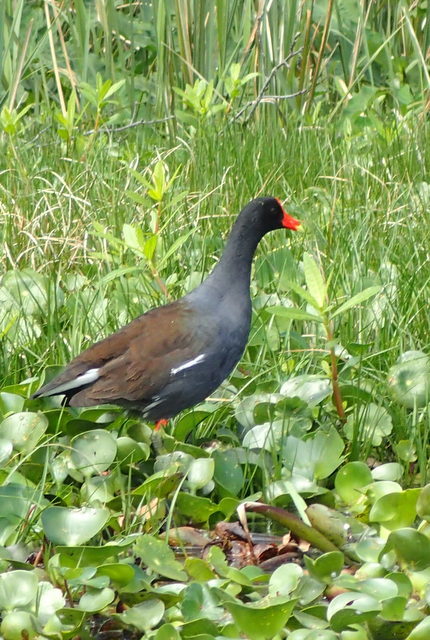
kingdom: Animalia
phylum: Chordata
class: Aves
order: Gruiformes
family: Rallidae
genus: Gallinula
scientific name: Gallinula chloropus
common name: Common moorhen
